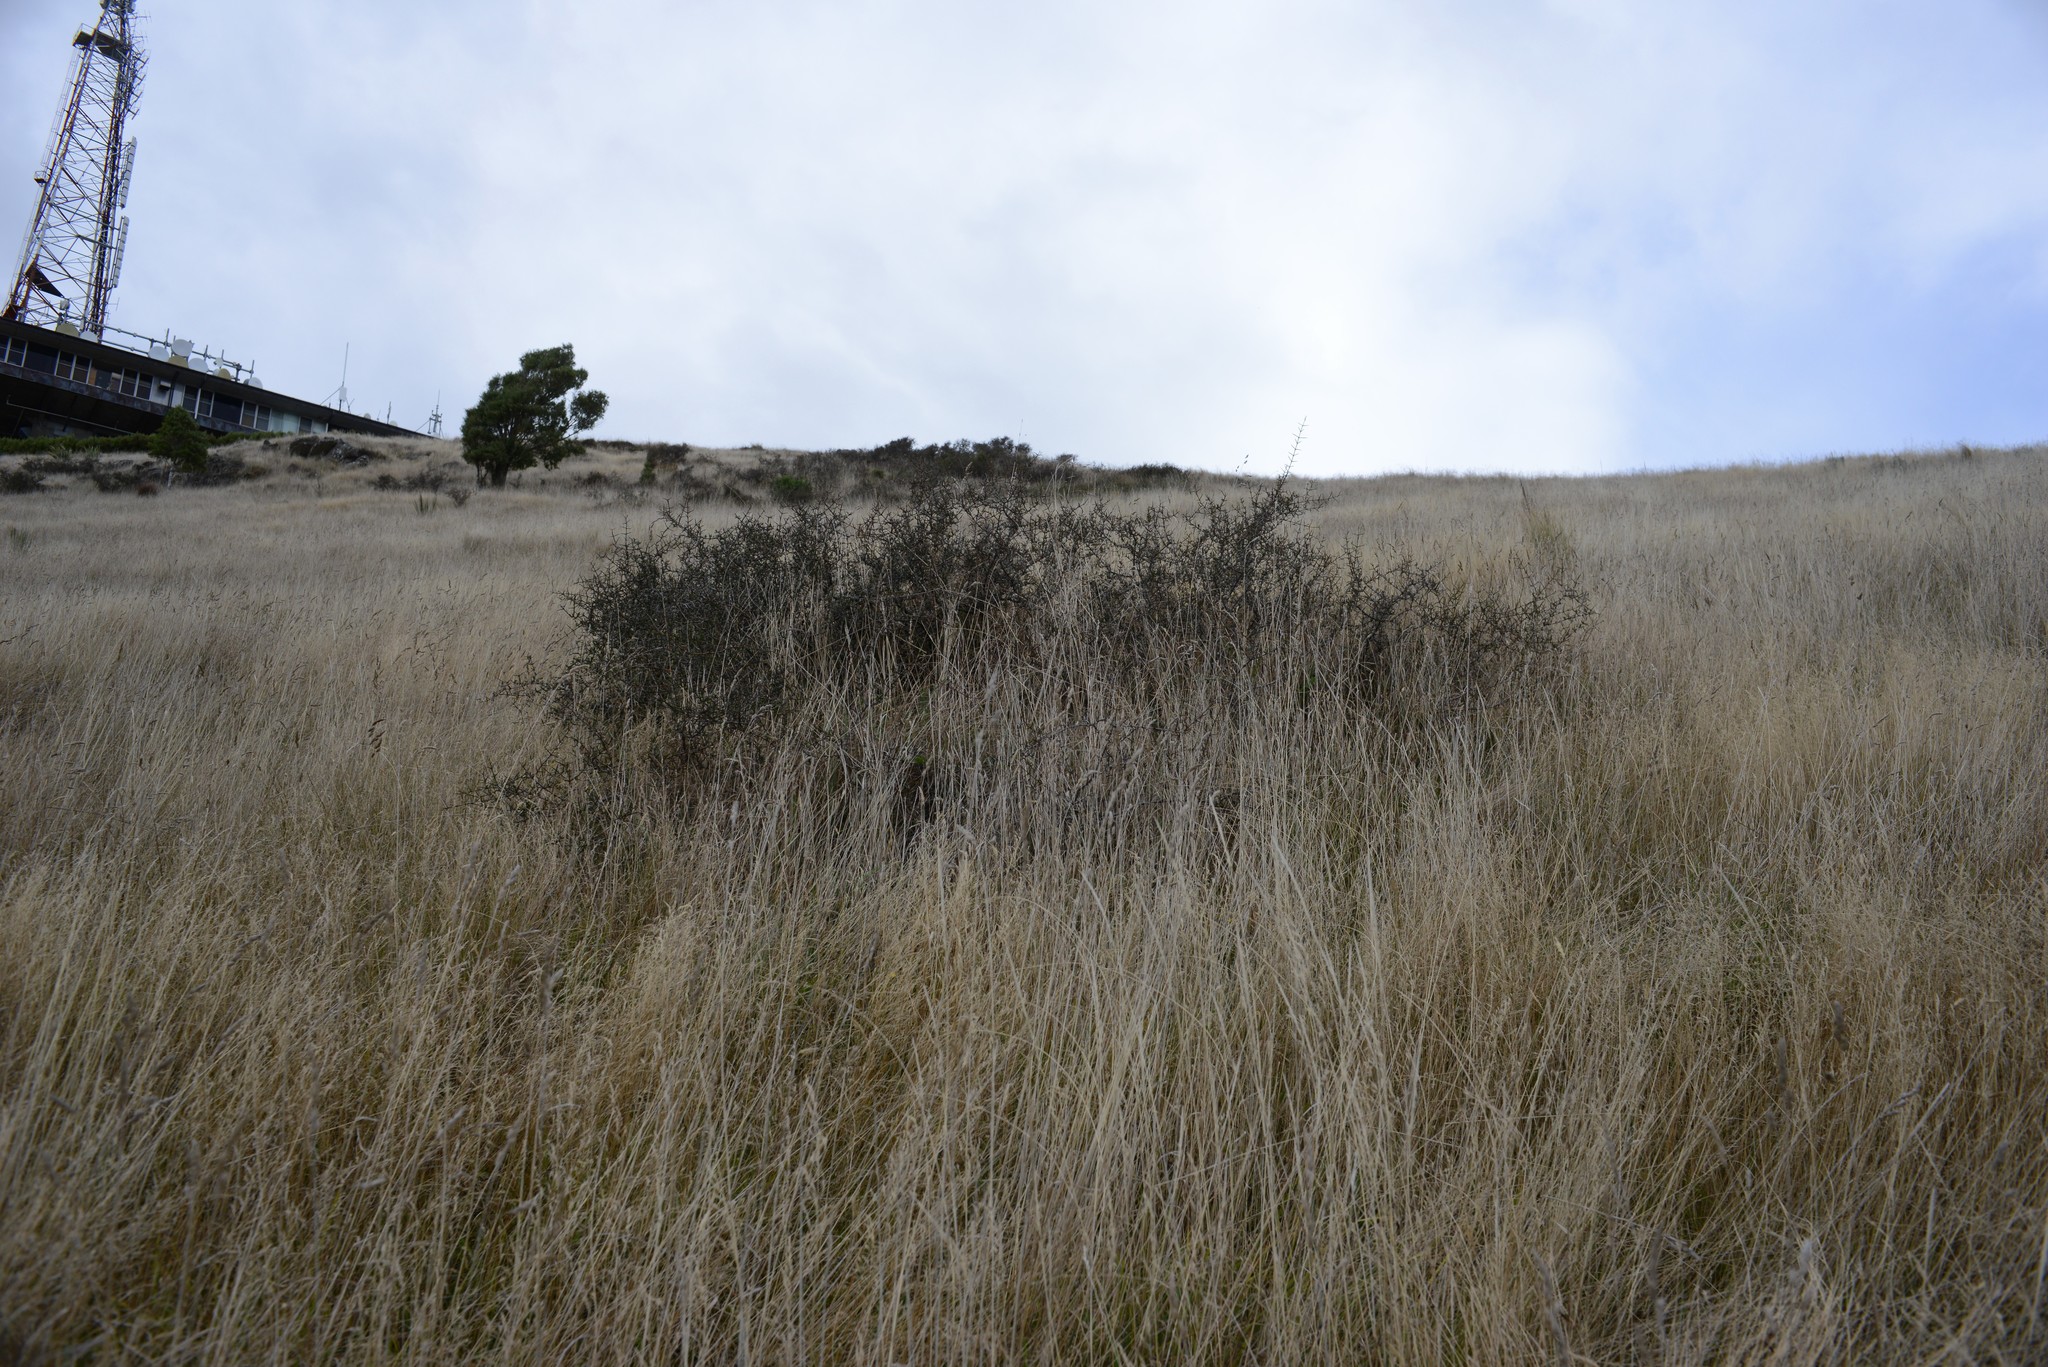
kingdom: Plantae
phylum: Tracheophyta
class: Magnoliopsida
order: Rosales
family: Rhamnaceae
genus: Discaria
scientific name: Discaria toumatou
